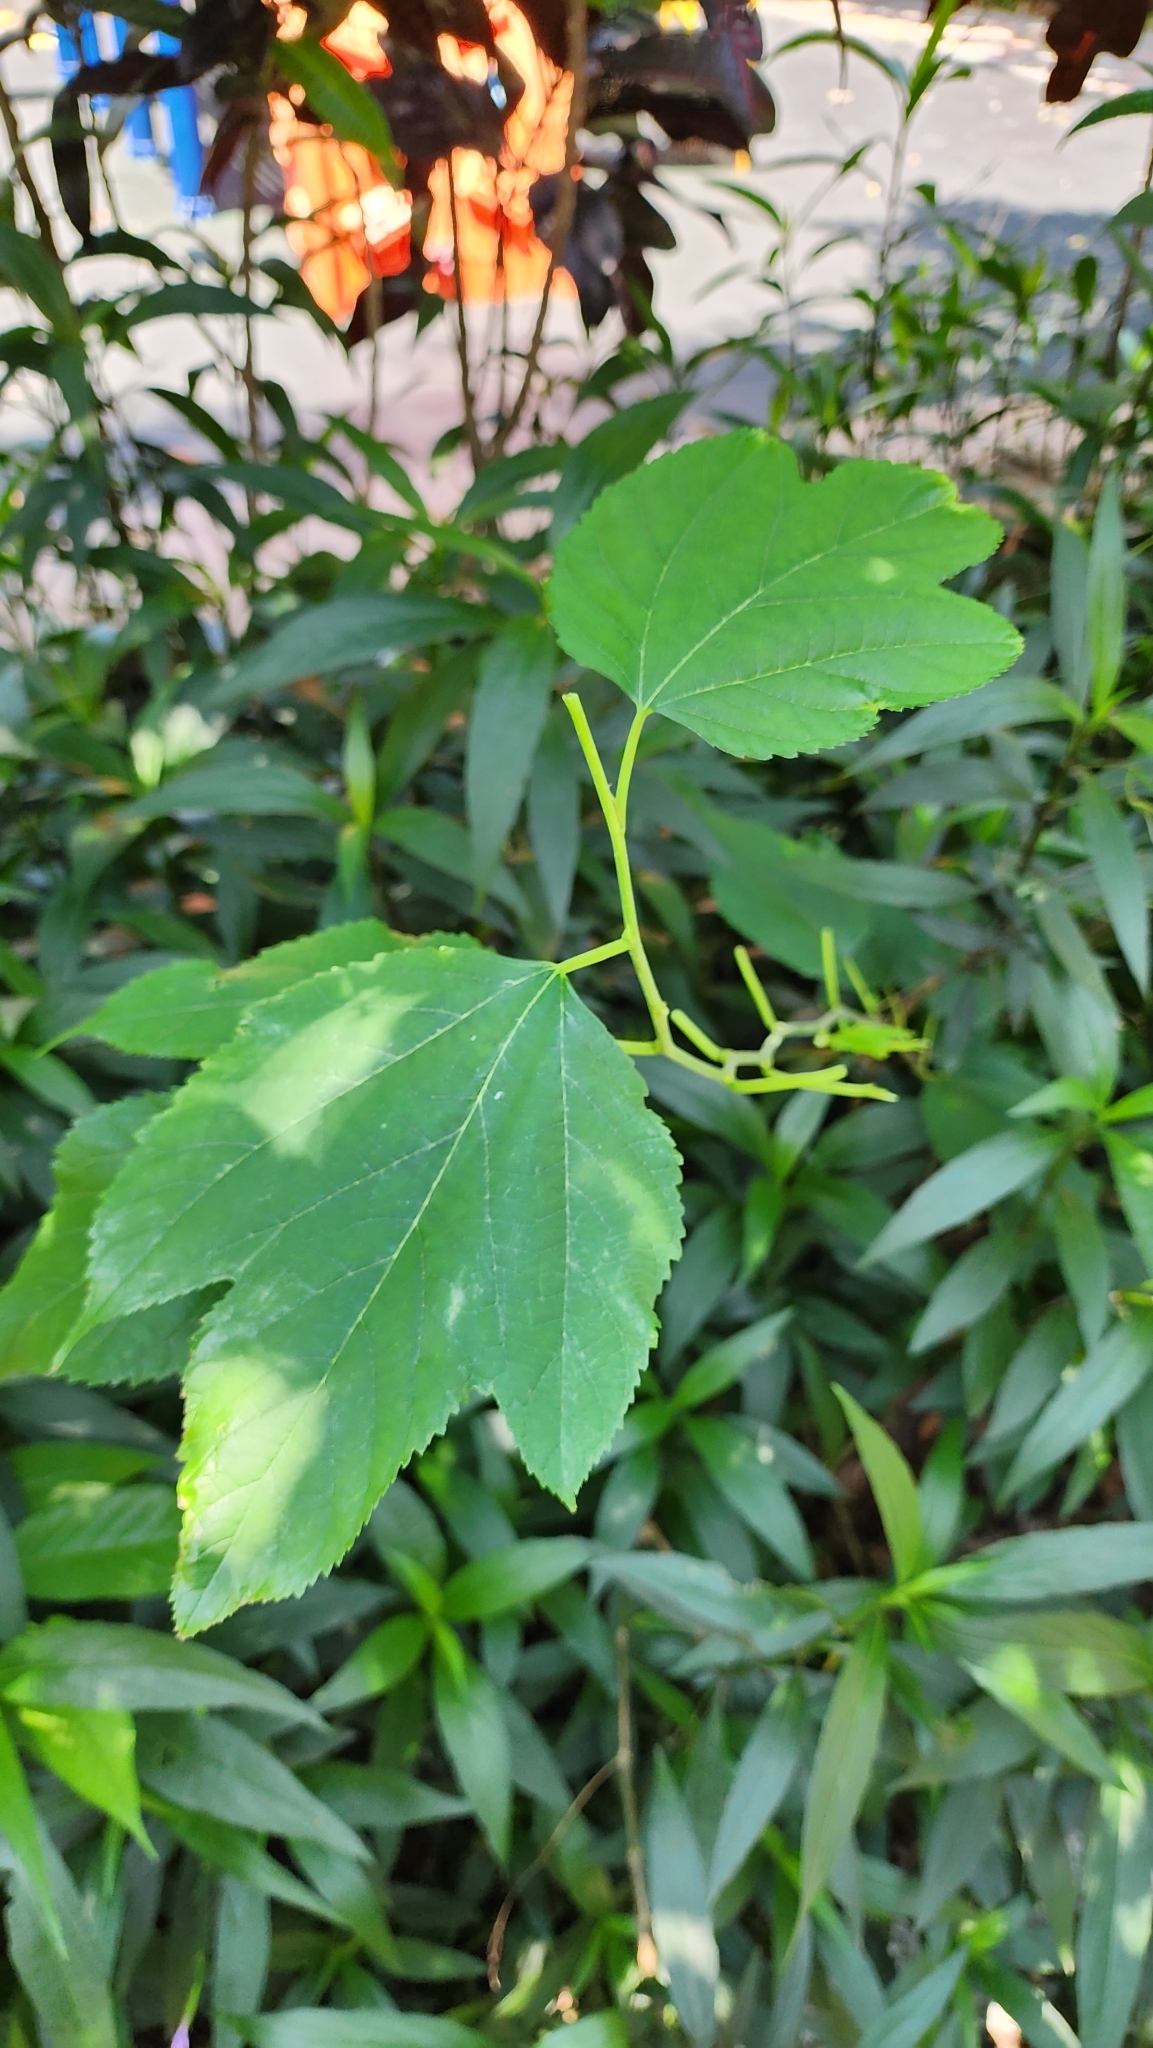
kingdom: Plantae
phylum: Tracheophyta
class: Magnoliopsida
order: Rosales
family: Moraceae
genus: Morus
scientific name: Morus indica
